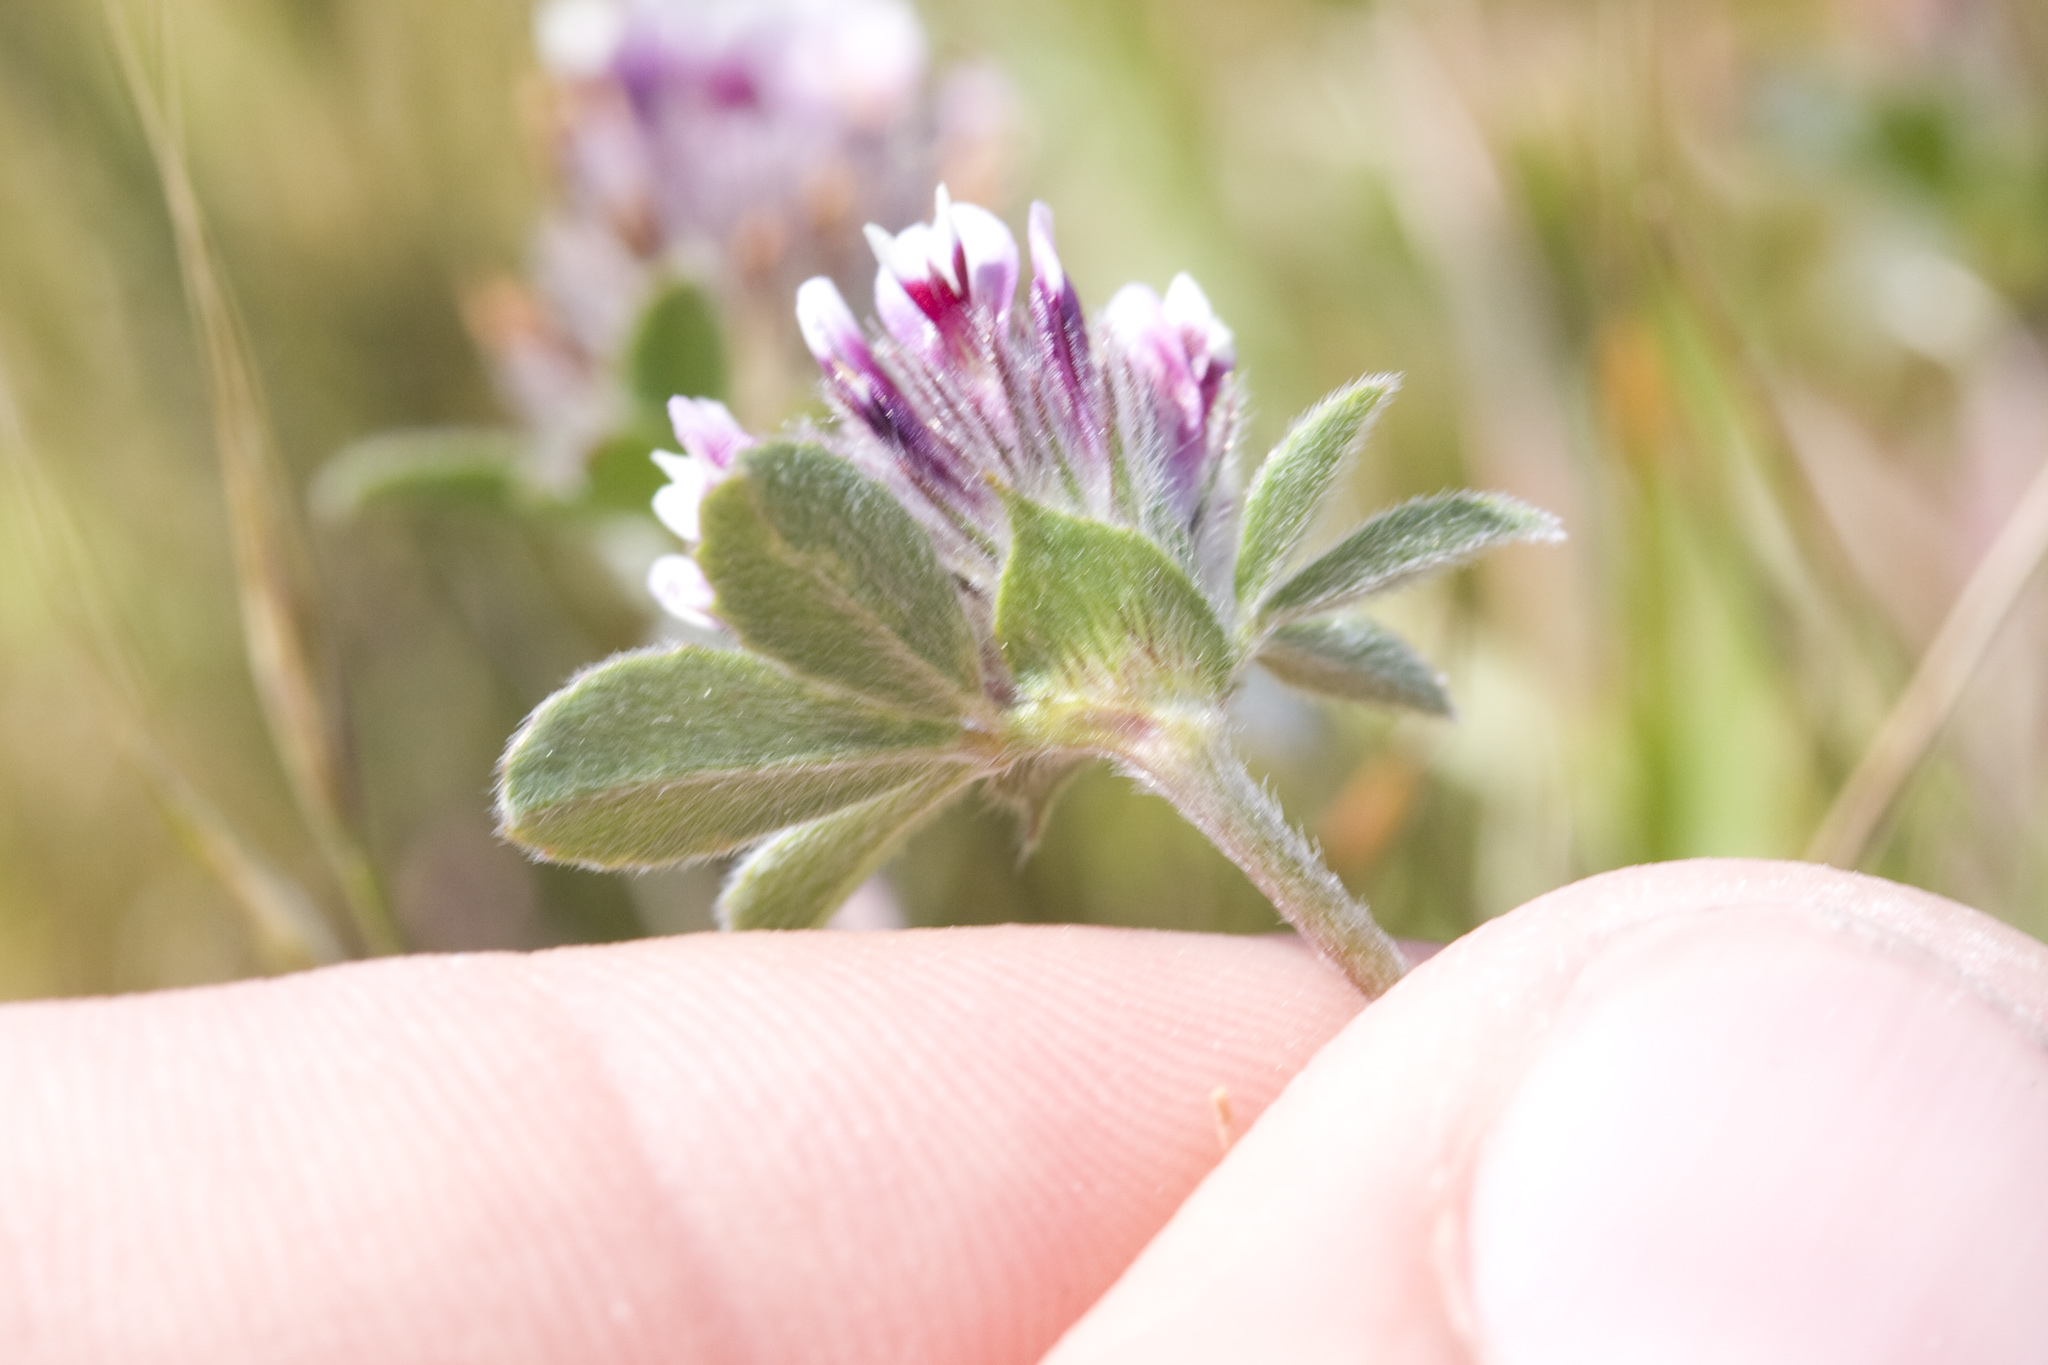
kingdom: Plantae
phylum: Tracheophyta
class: Magnoliopsida
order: Fabales
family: Fabaceae
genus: Trifolium
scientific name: Trifolium macraei
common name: Macrae's clover
